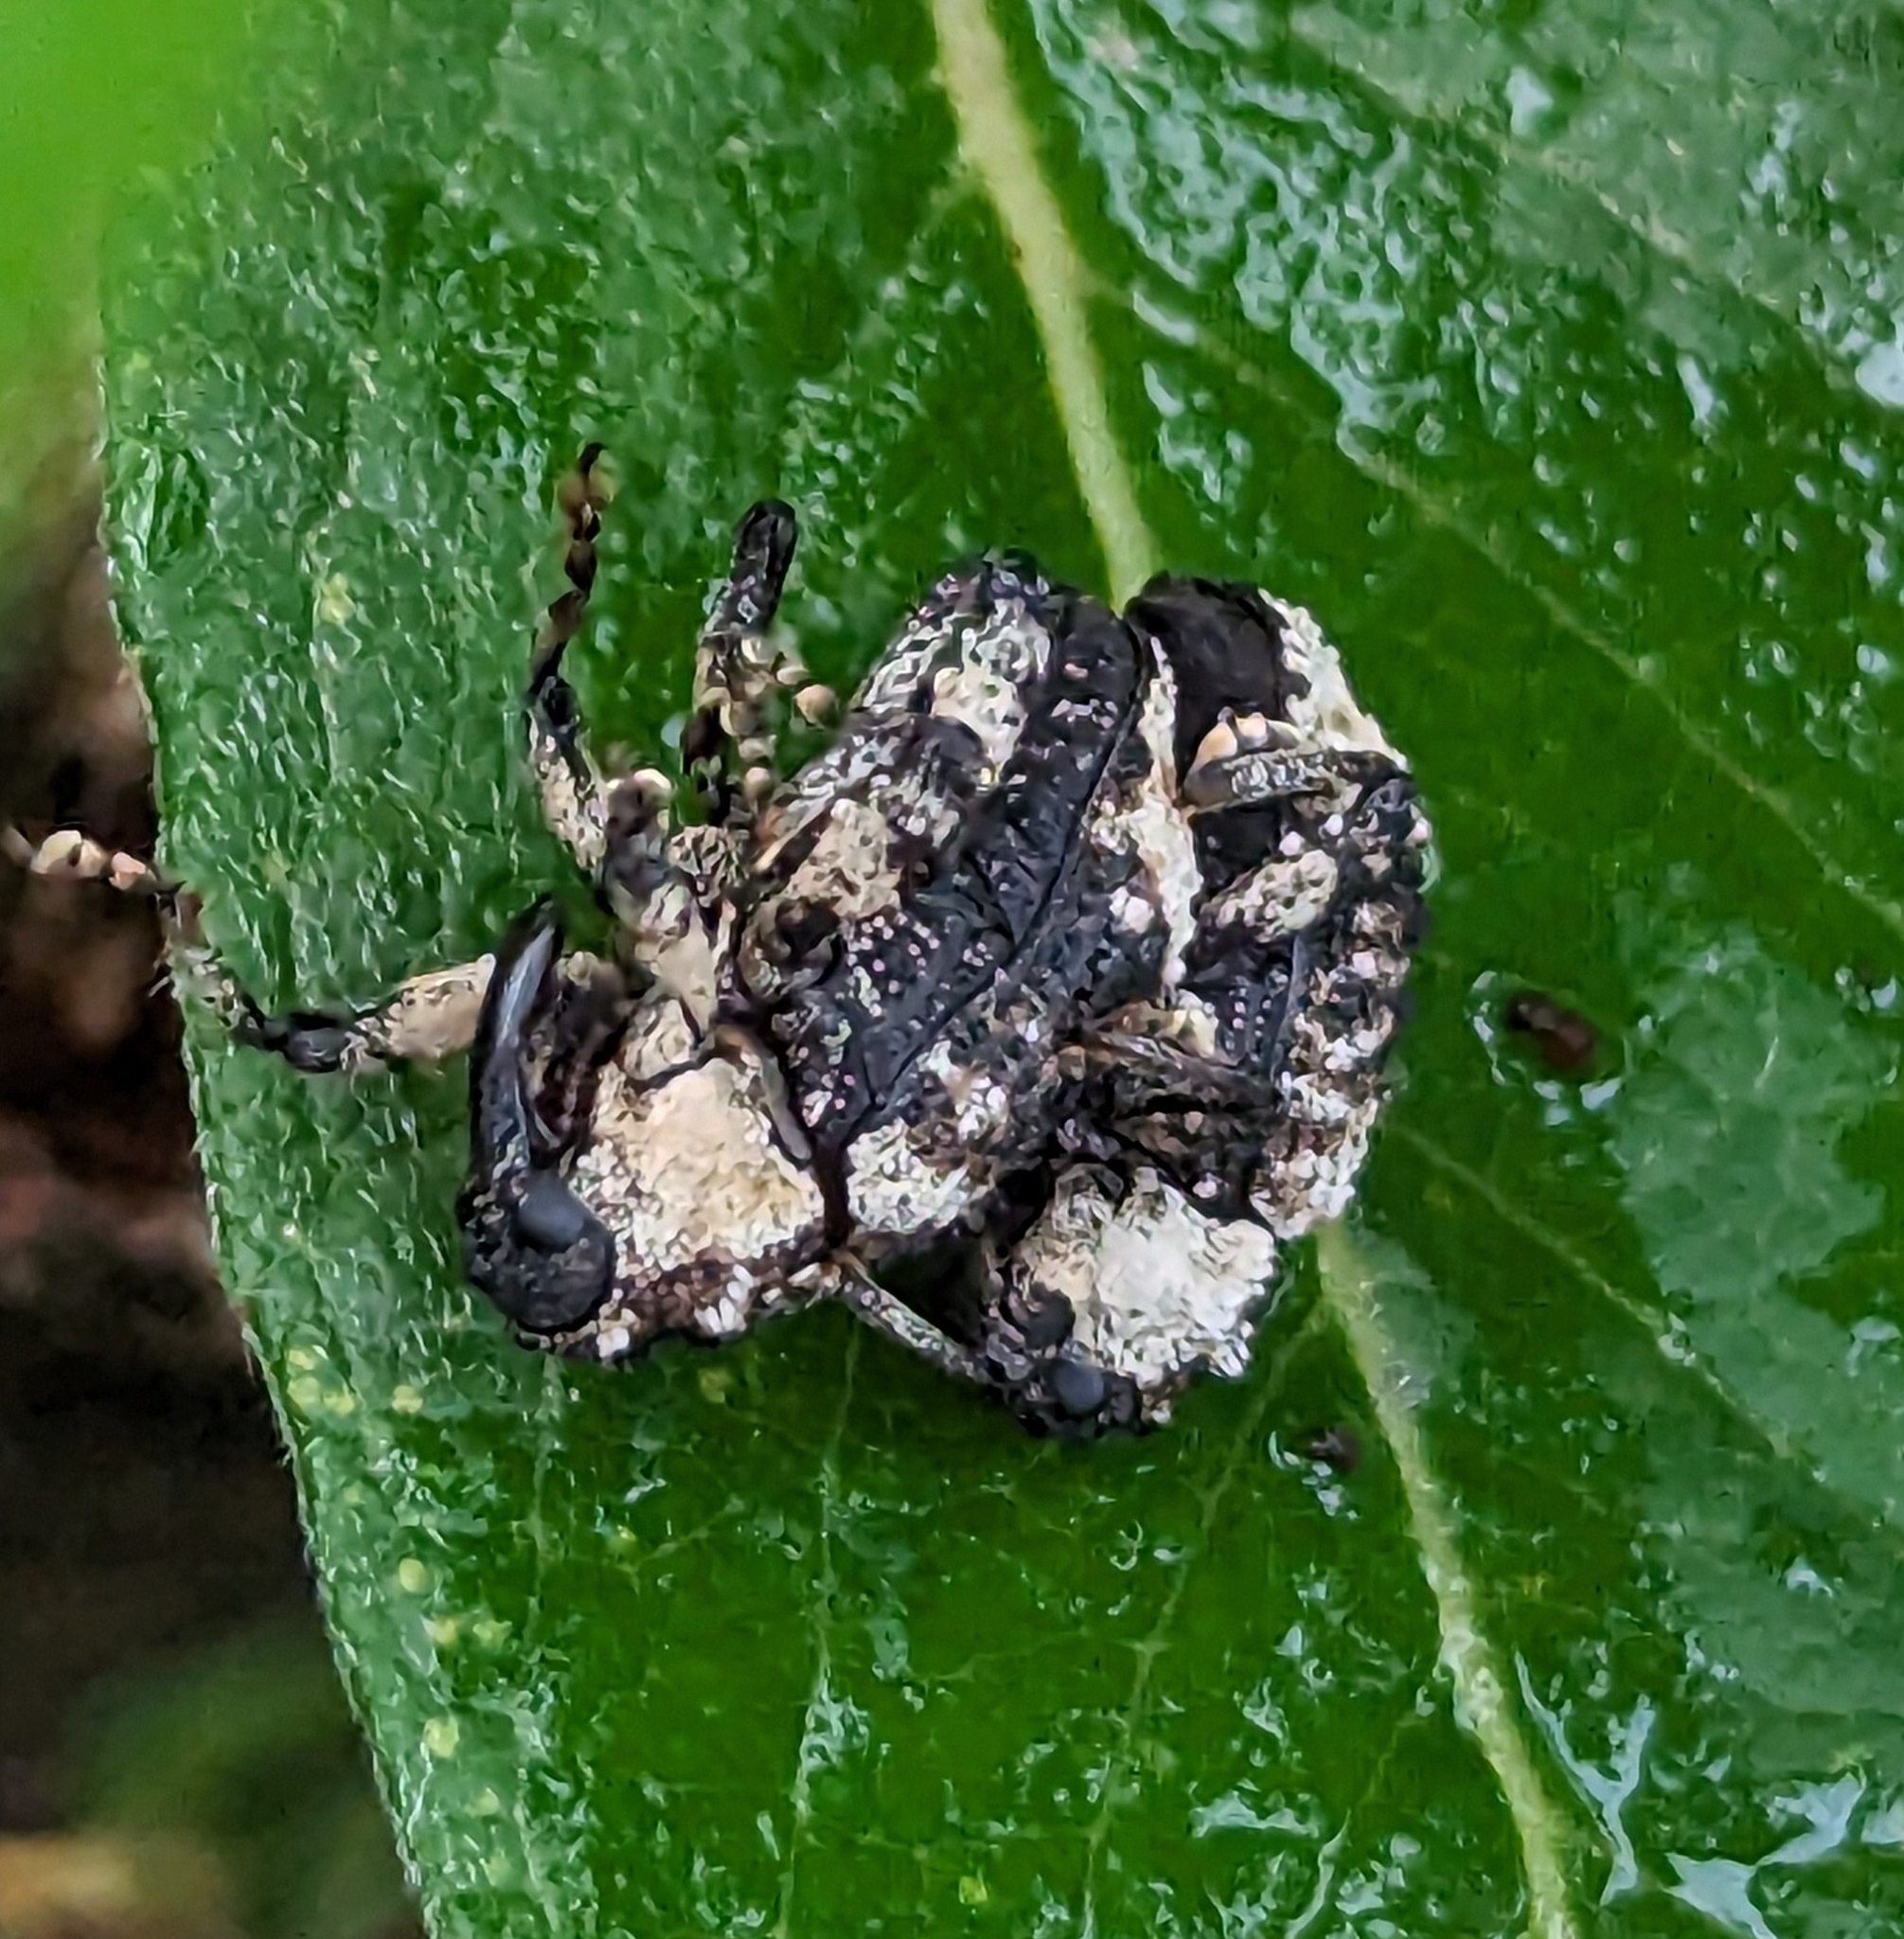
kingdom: Animalia
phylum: Arthropoda
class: Insecta
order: Coleoptera
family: Curculionidae
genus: Cryptorhynchus
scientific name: Cryptorhynchus lapathi
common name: Weevil
